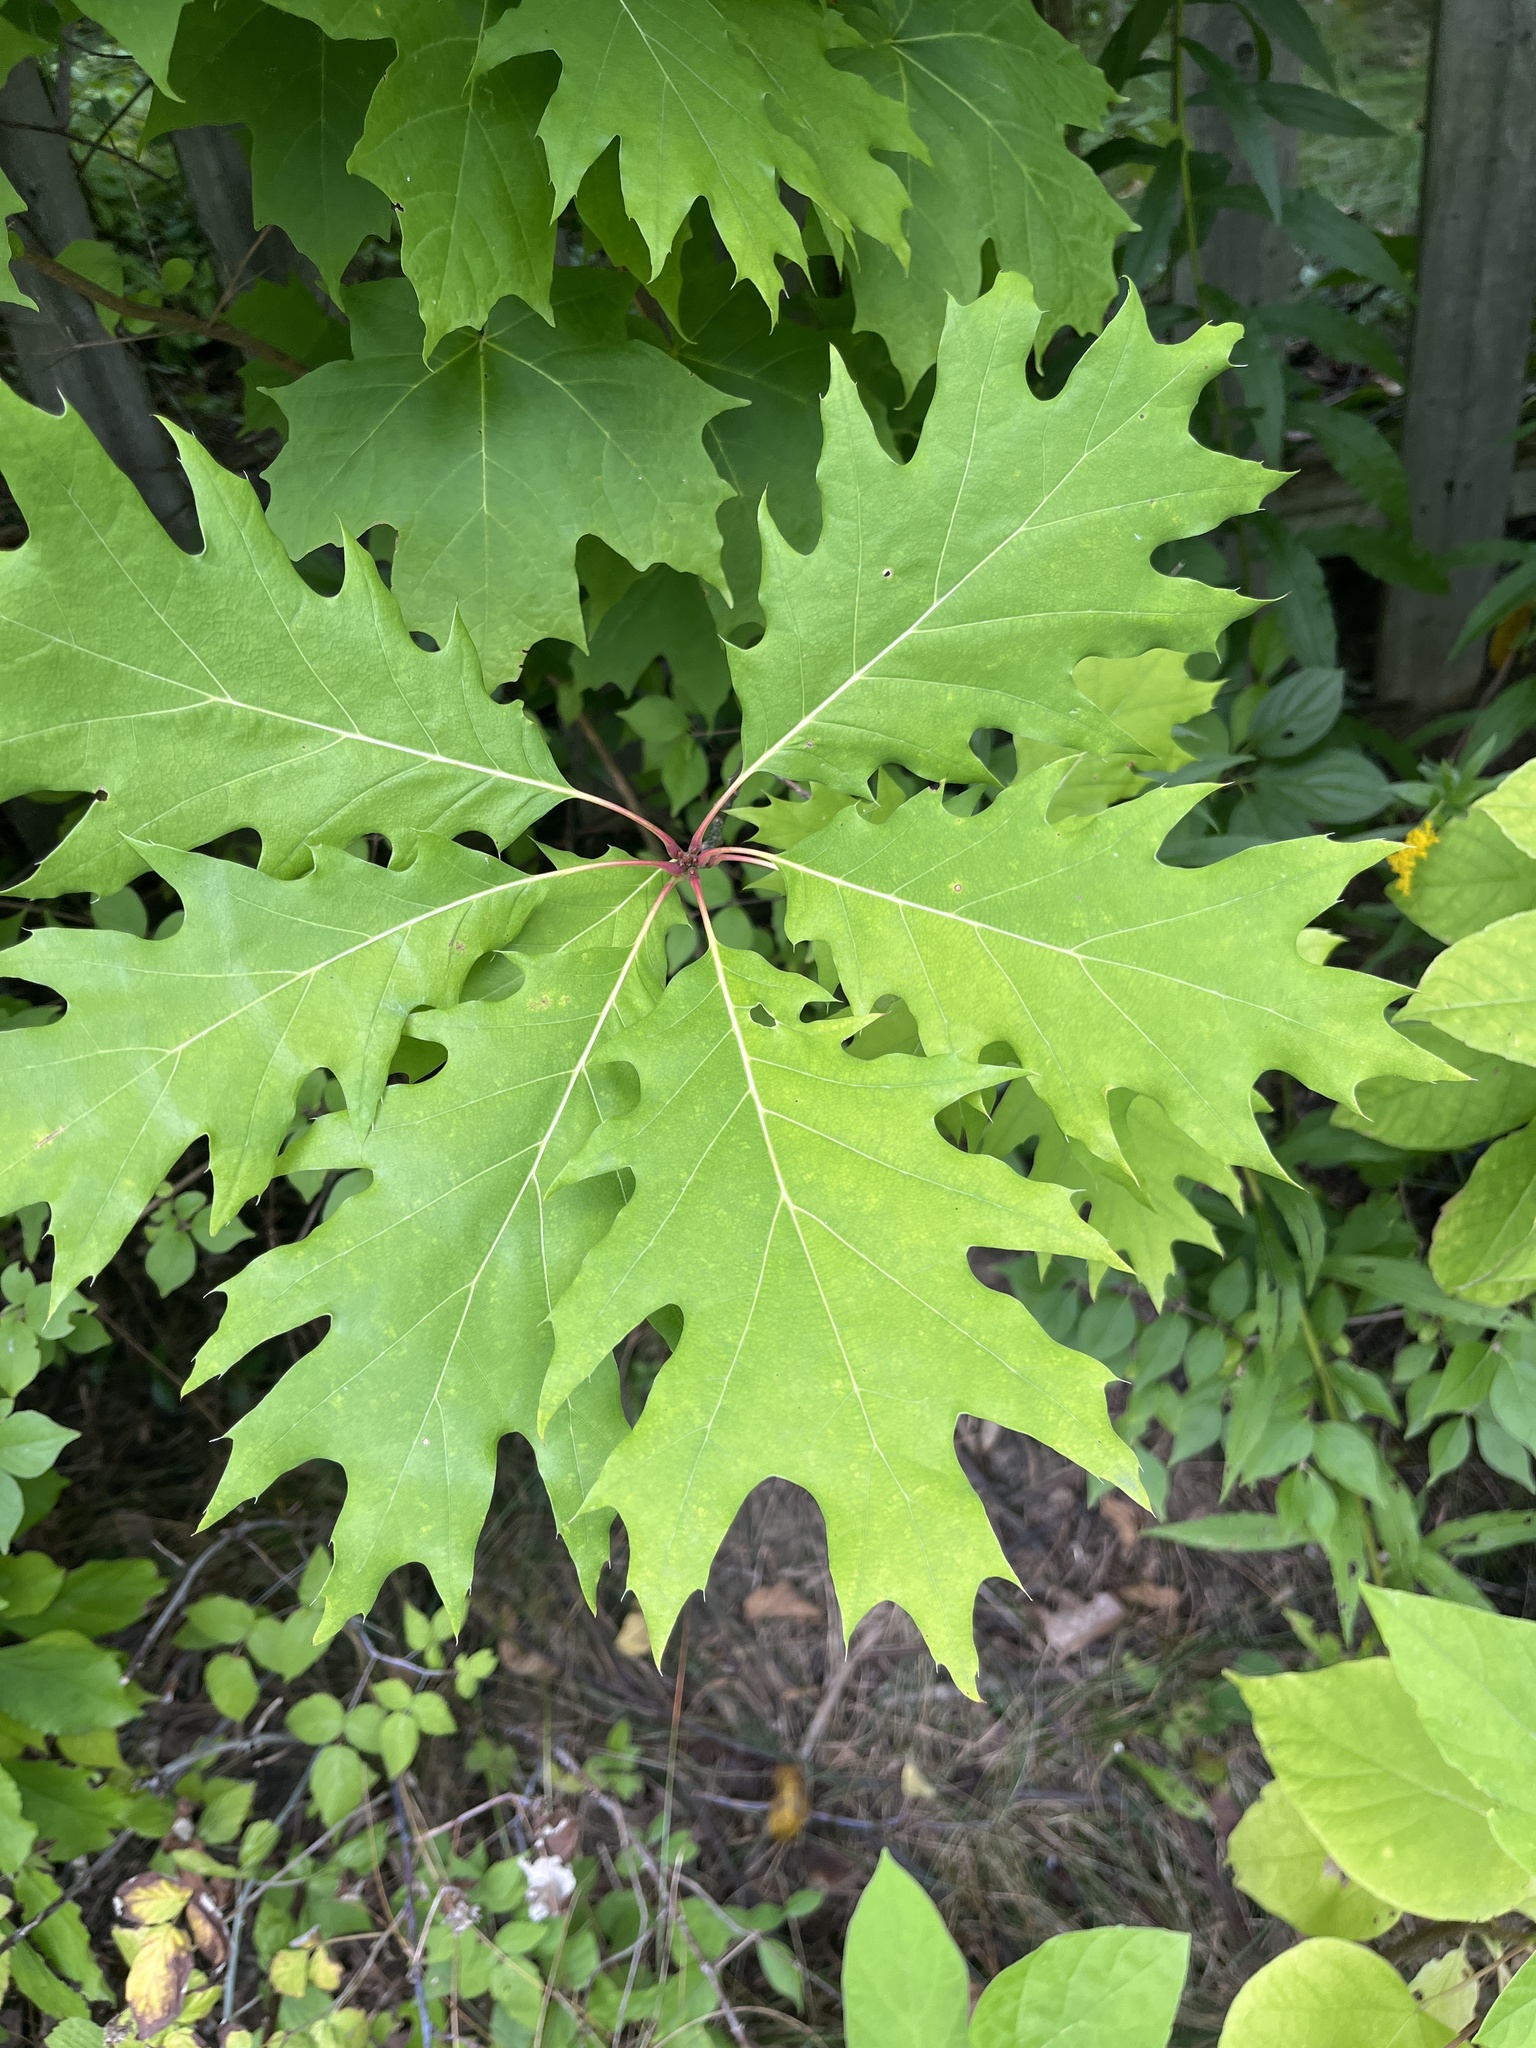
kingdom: Plantae
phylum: Tracheophyta
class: Magnoliopsida
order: Fagales
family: Fagaceae
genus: Quercus
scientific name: Quercus rubra
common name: Red oak
